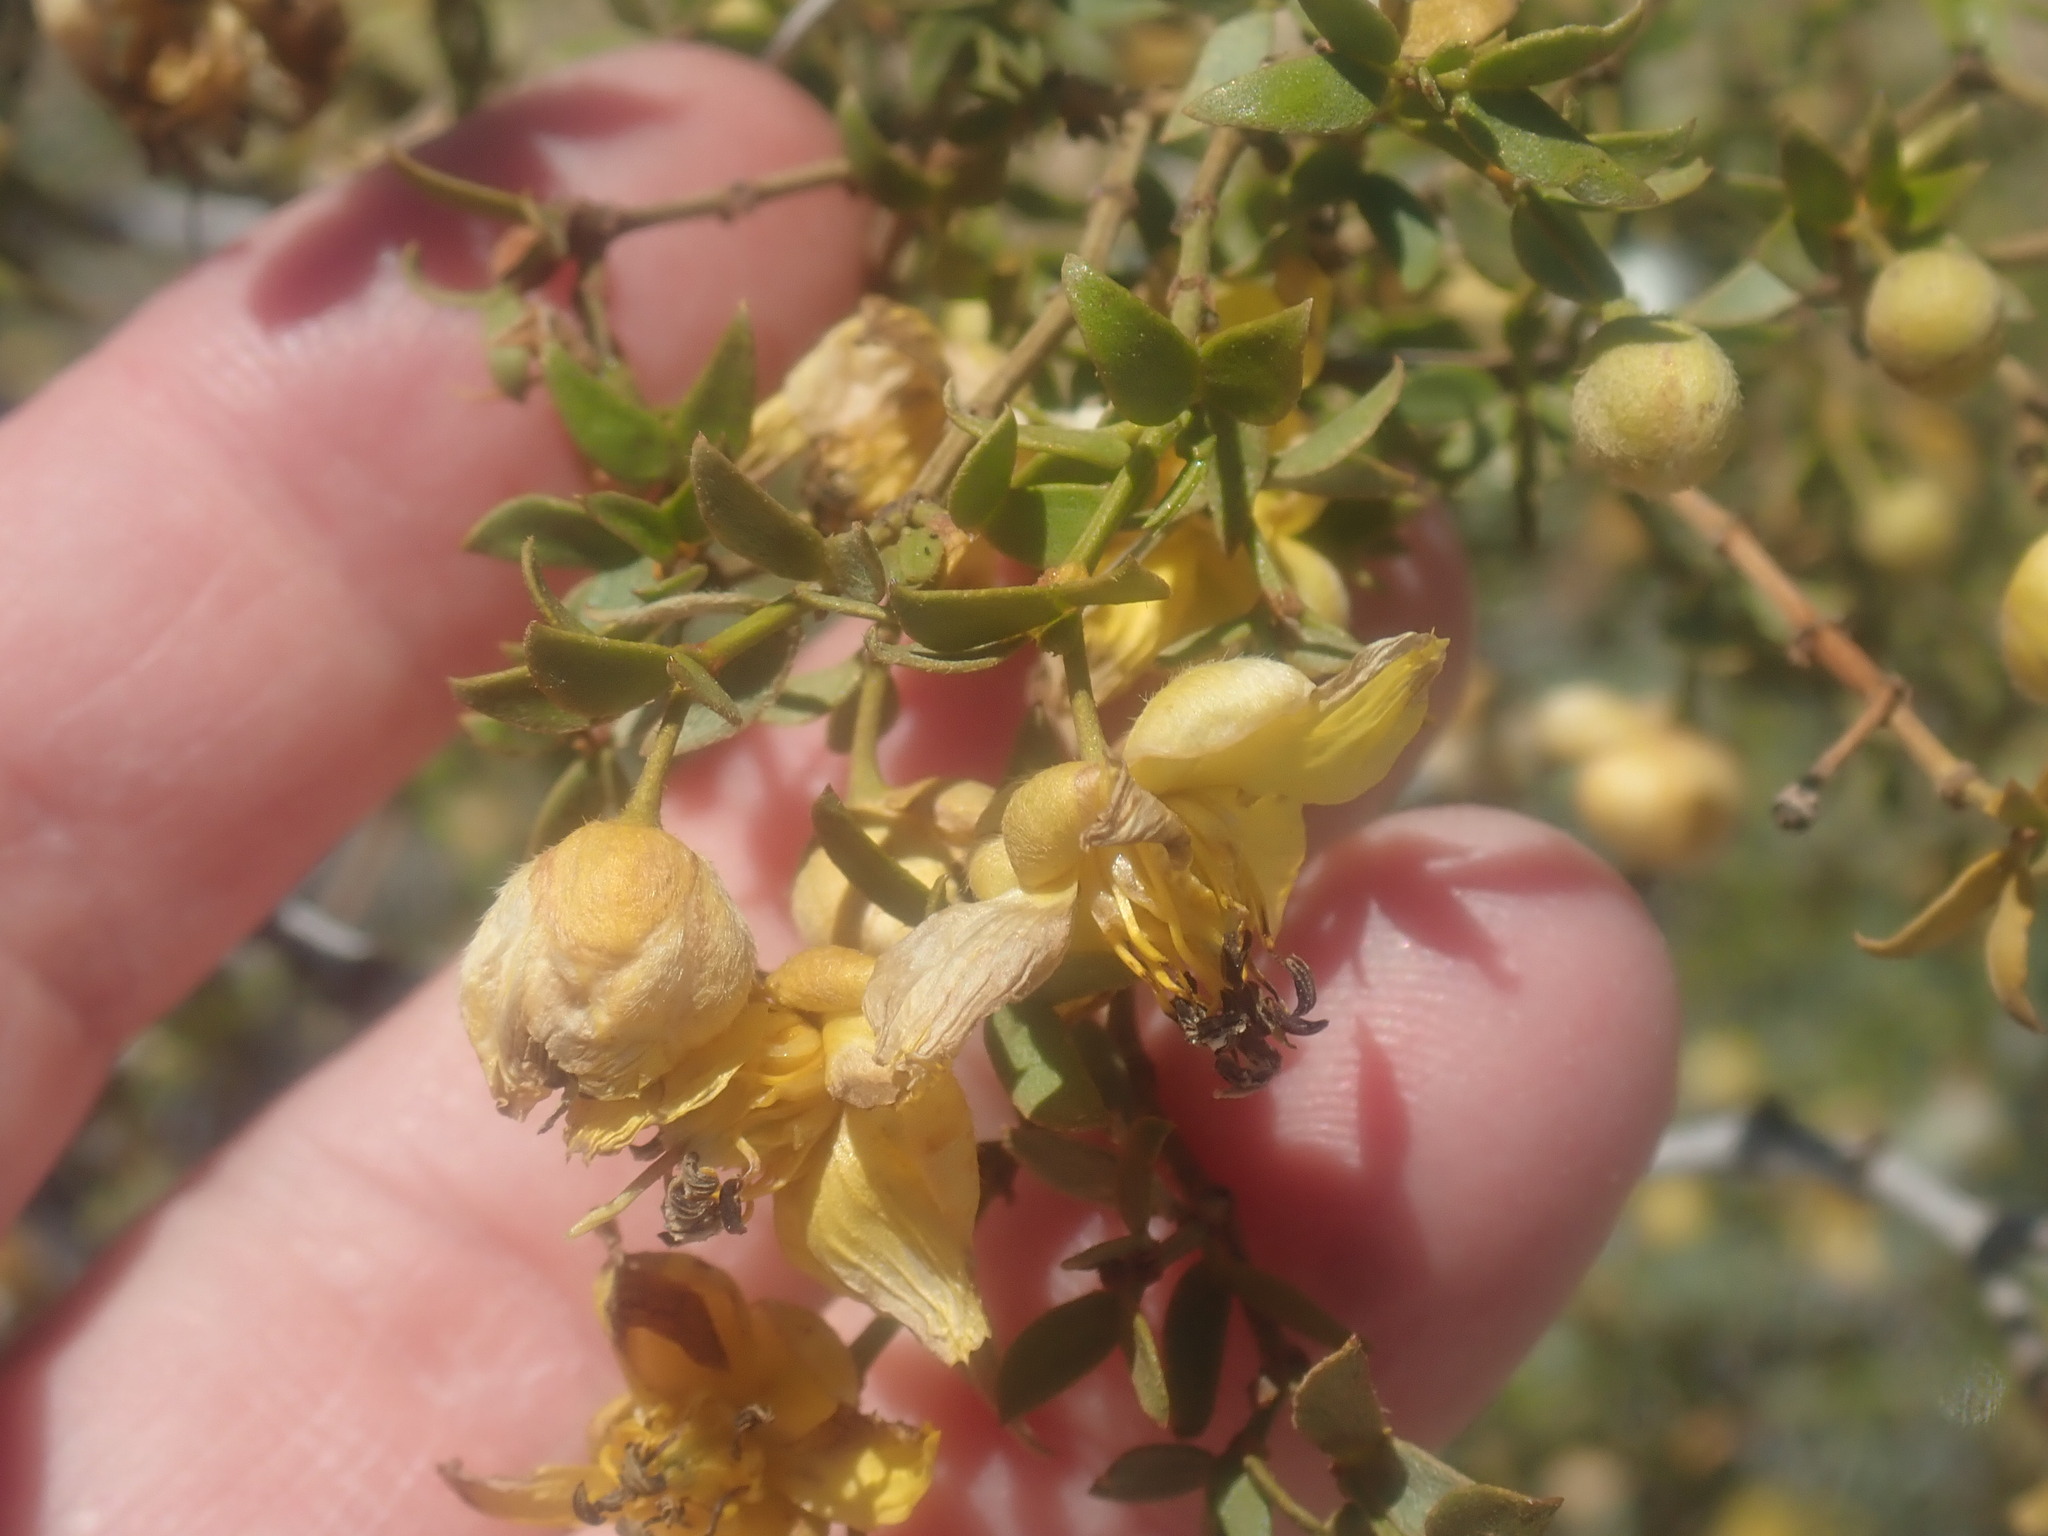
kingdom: Plantae
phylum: Tracheophyta
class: Magnoliopsida
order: Zygophyllales
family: Zygophyllaceae
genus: Larrea
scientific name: Larrea tridentata
